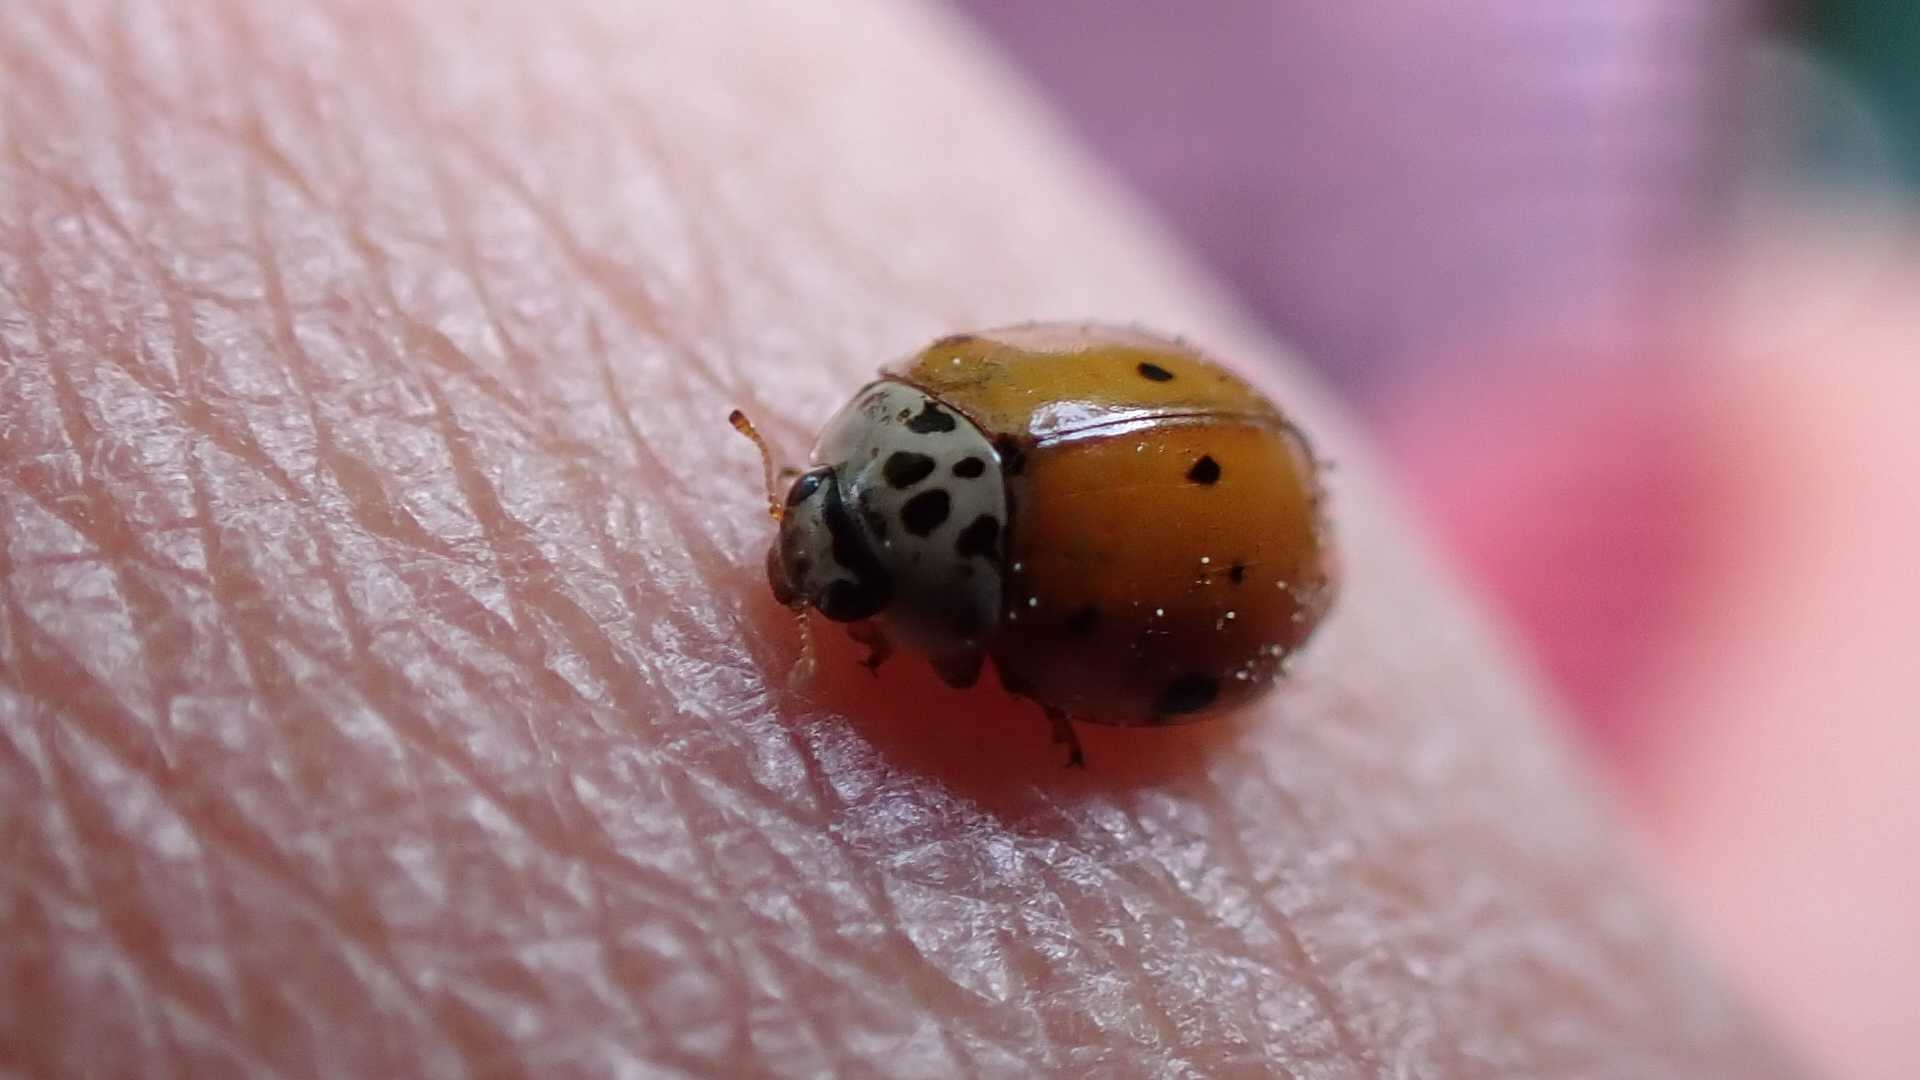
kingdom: Animalia
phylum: Arthropoda
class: Insecta
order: Coleoptera
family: Coccinellidae
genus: Adalia
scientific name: Adalia decempunctata
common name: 10-spot ladybird
